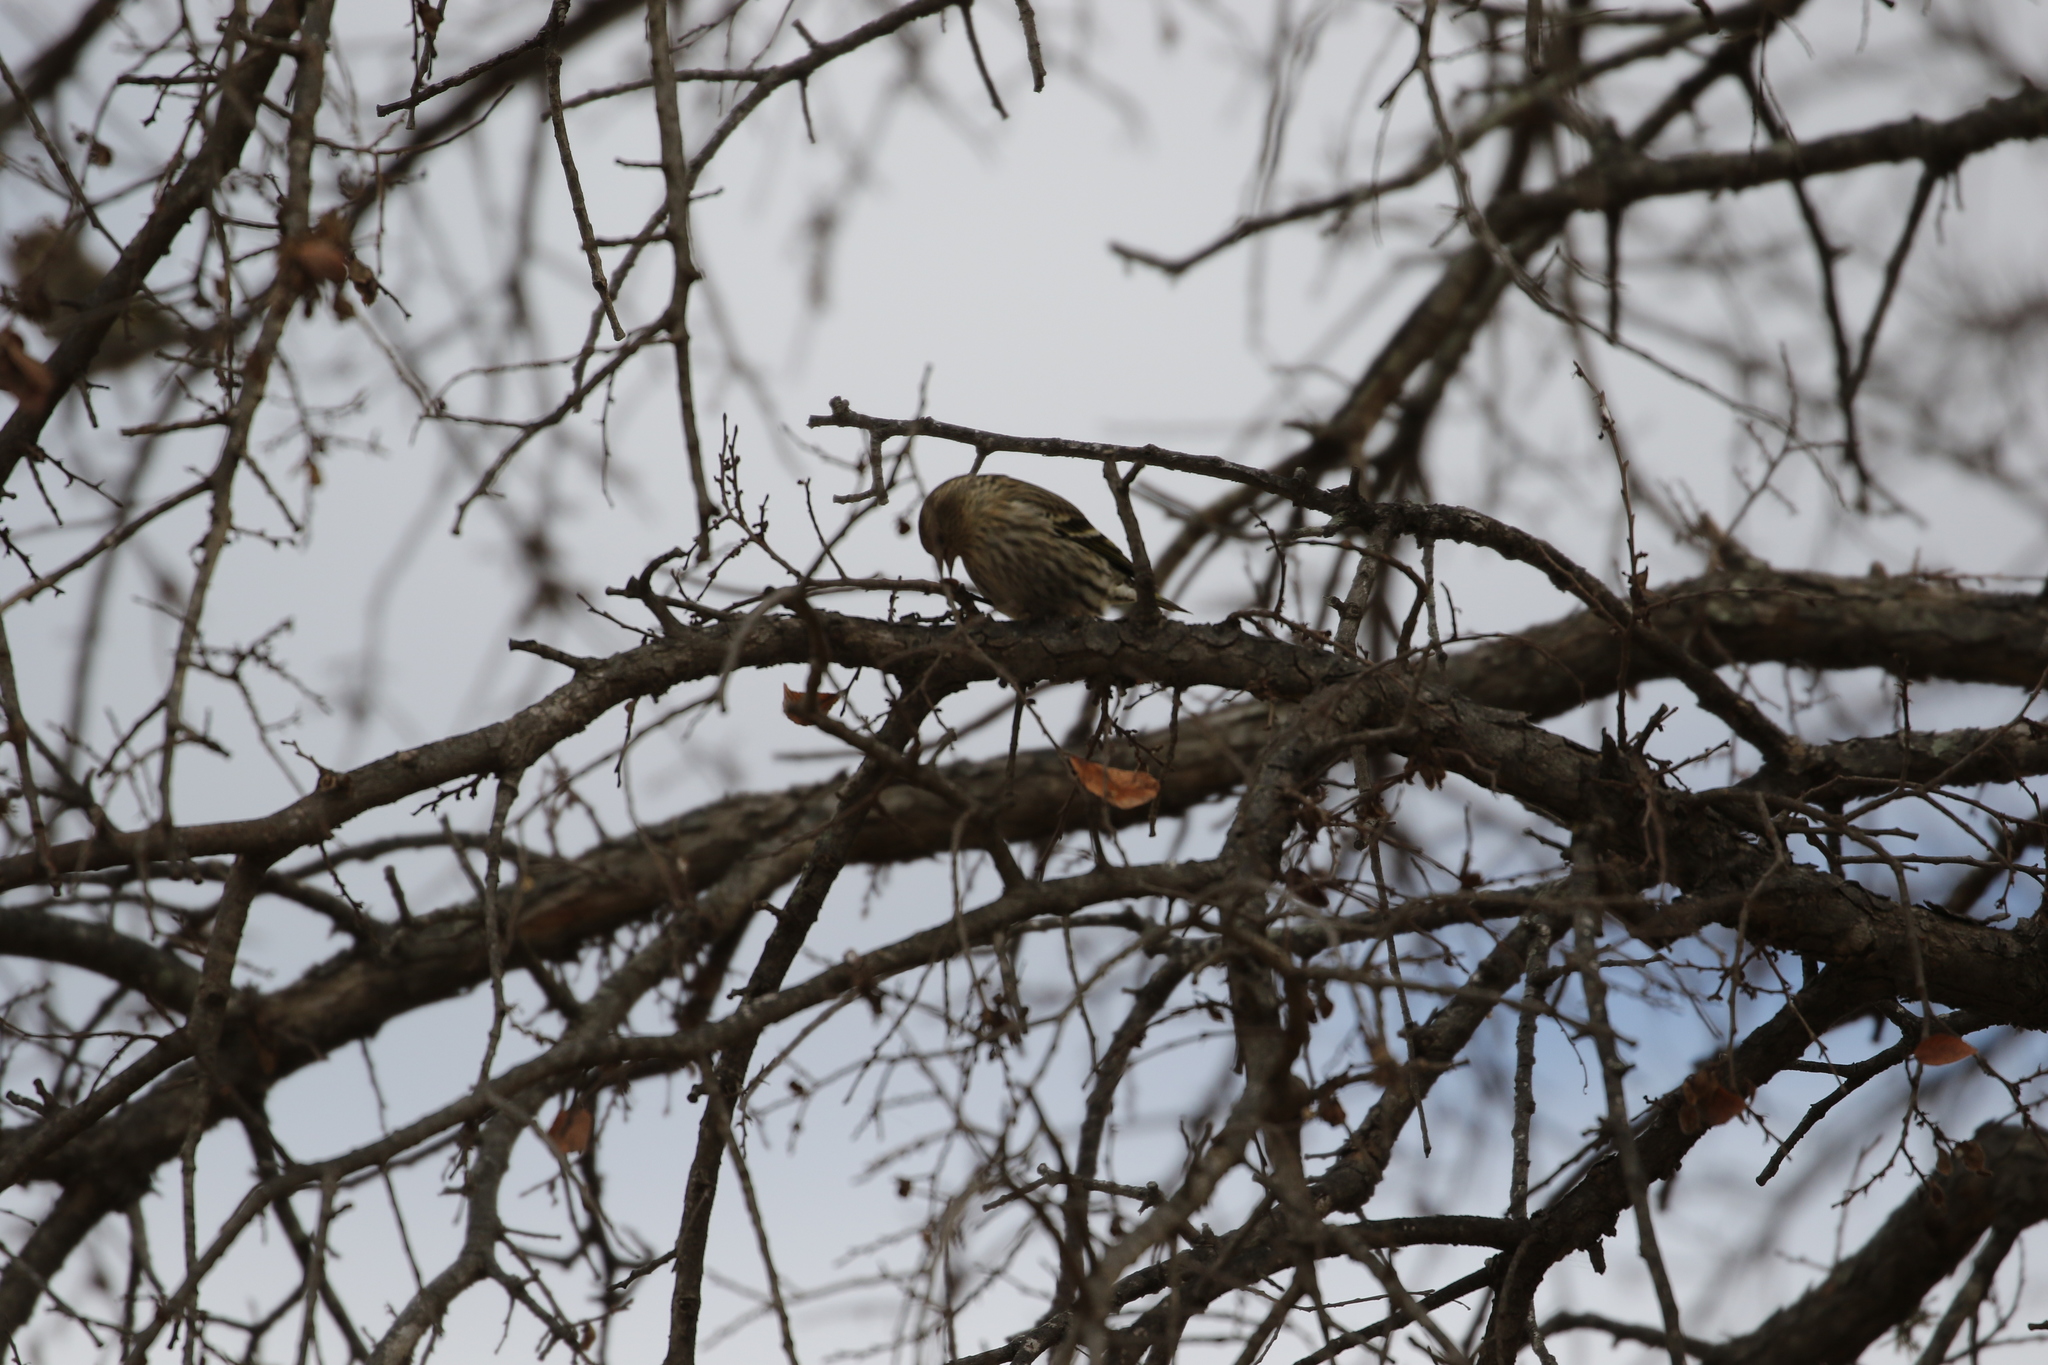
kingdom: Animalia
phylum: Chordata
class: Aves
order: Passeriformes
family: Fringillidae
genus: Spinus
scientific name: Spinus pinus
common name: Pine siskin
